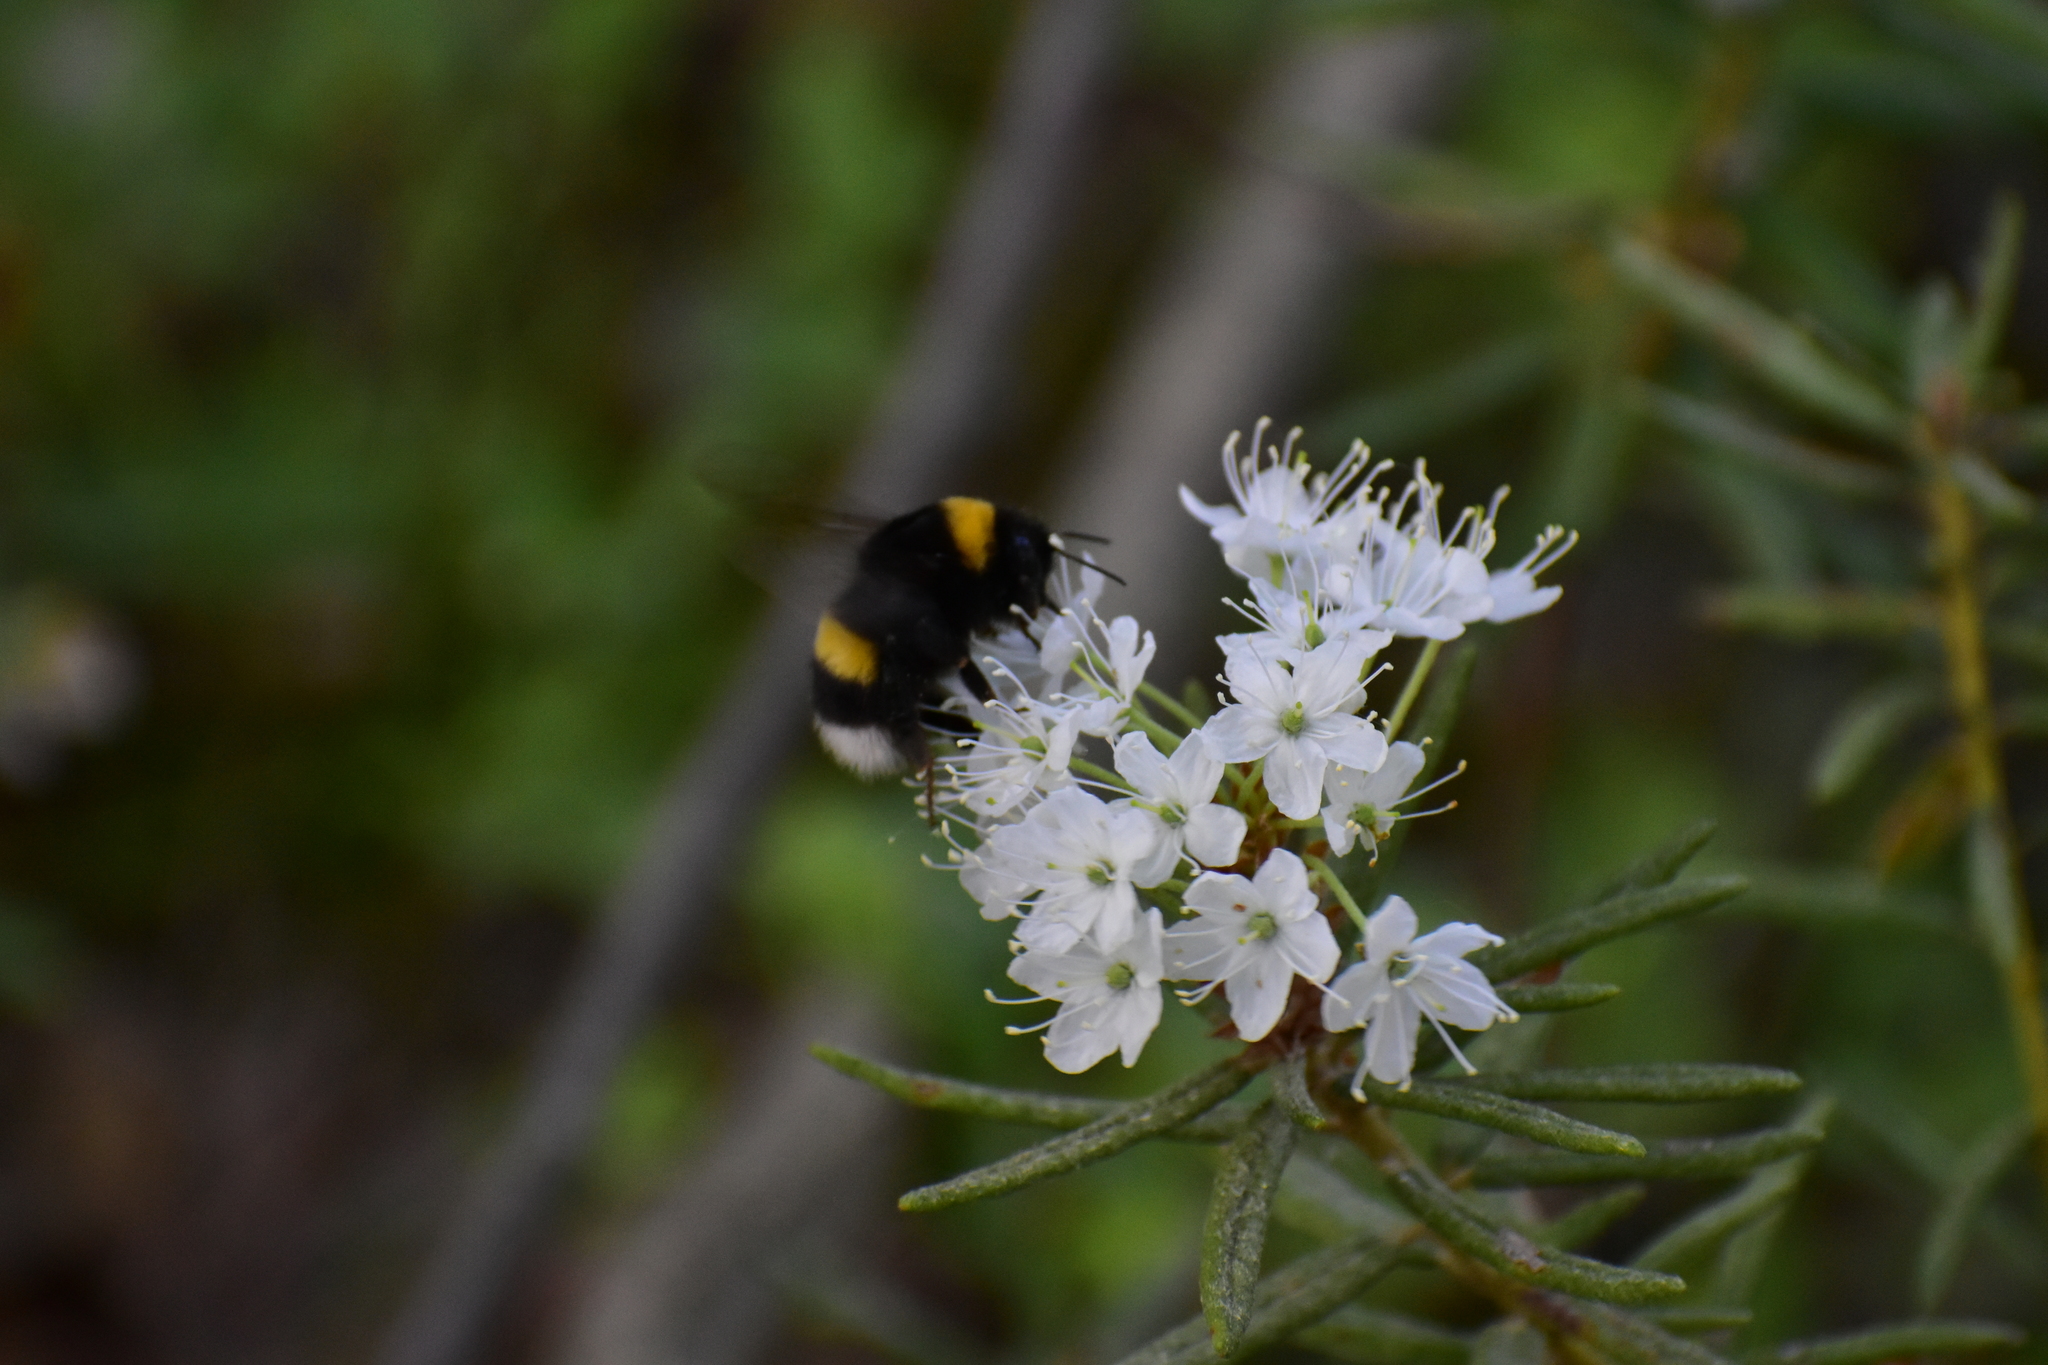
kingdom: Animalia
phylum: Arthropoda
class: Insecta
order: Hymenoptera
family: Apidae
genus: Bombus
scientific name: Bombus
